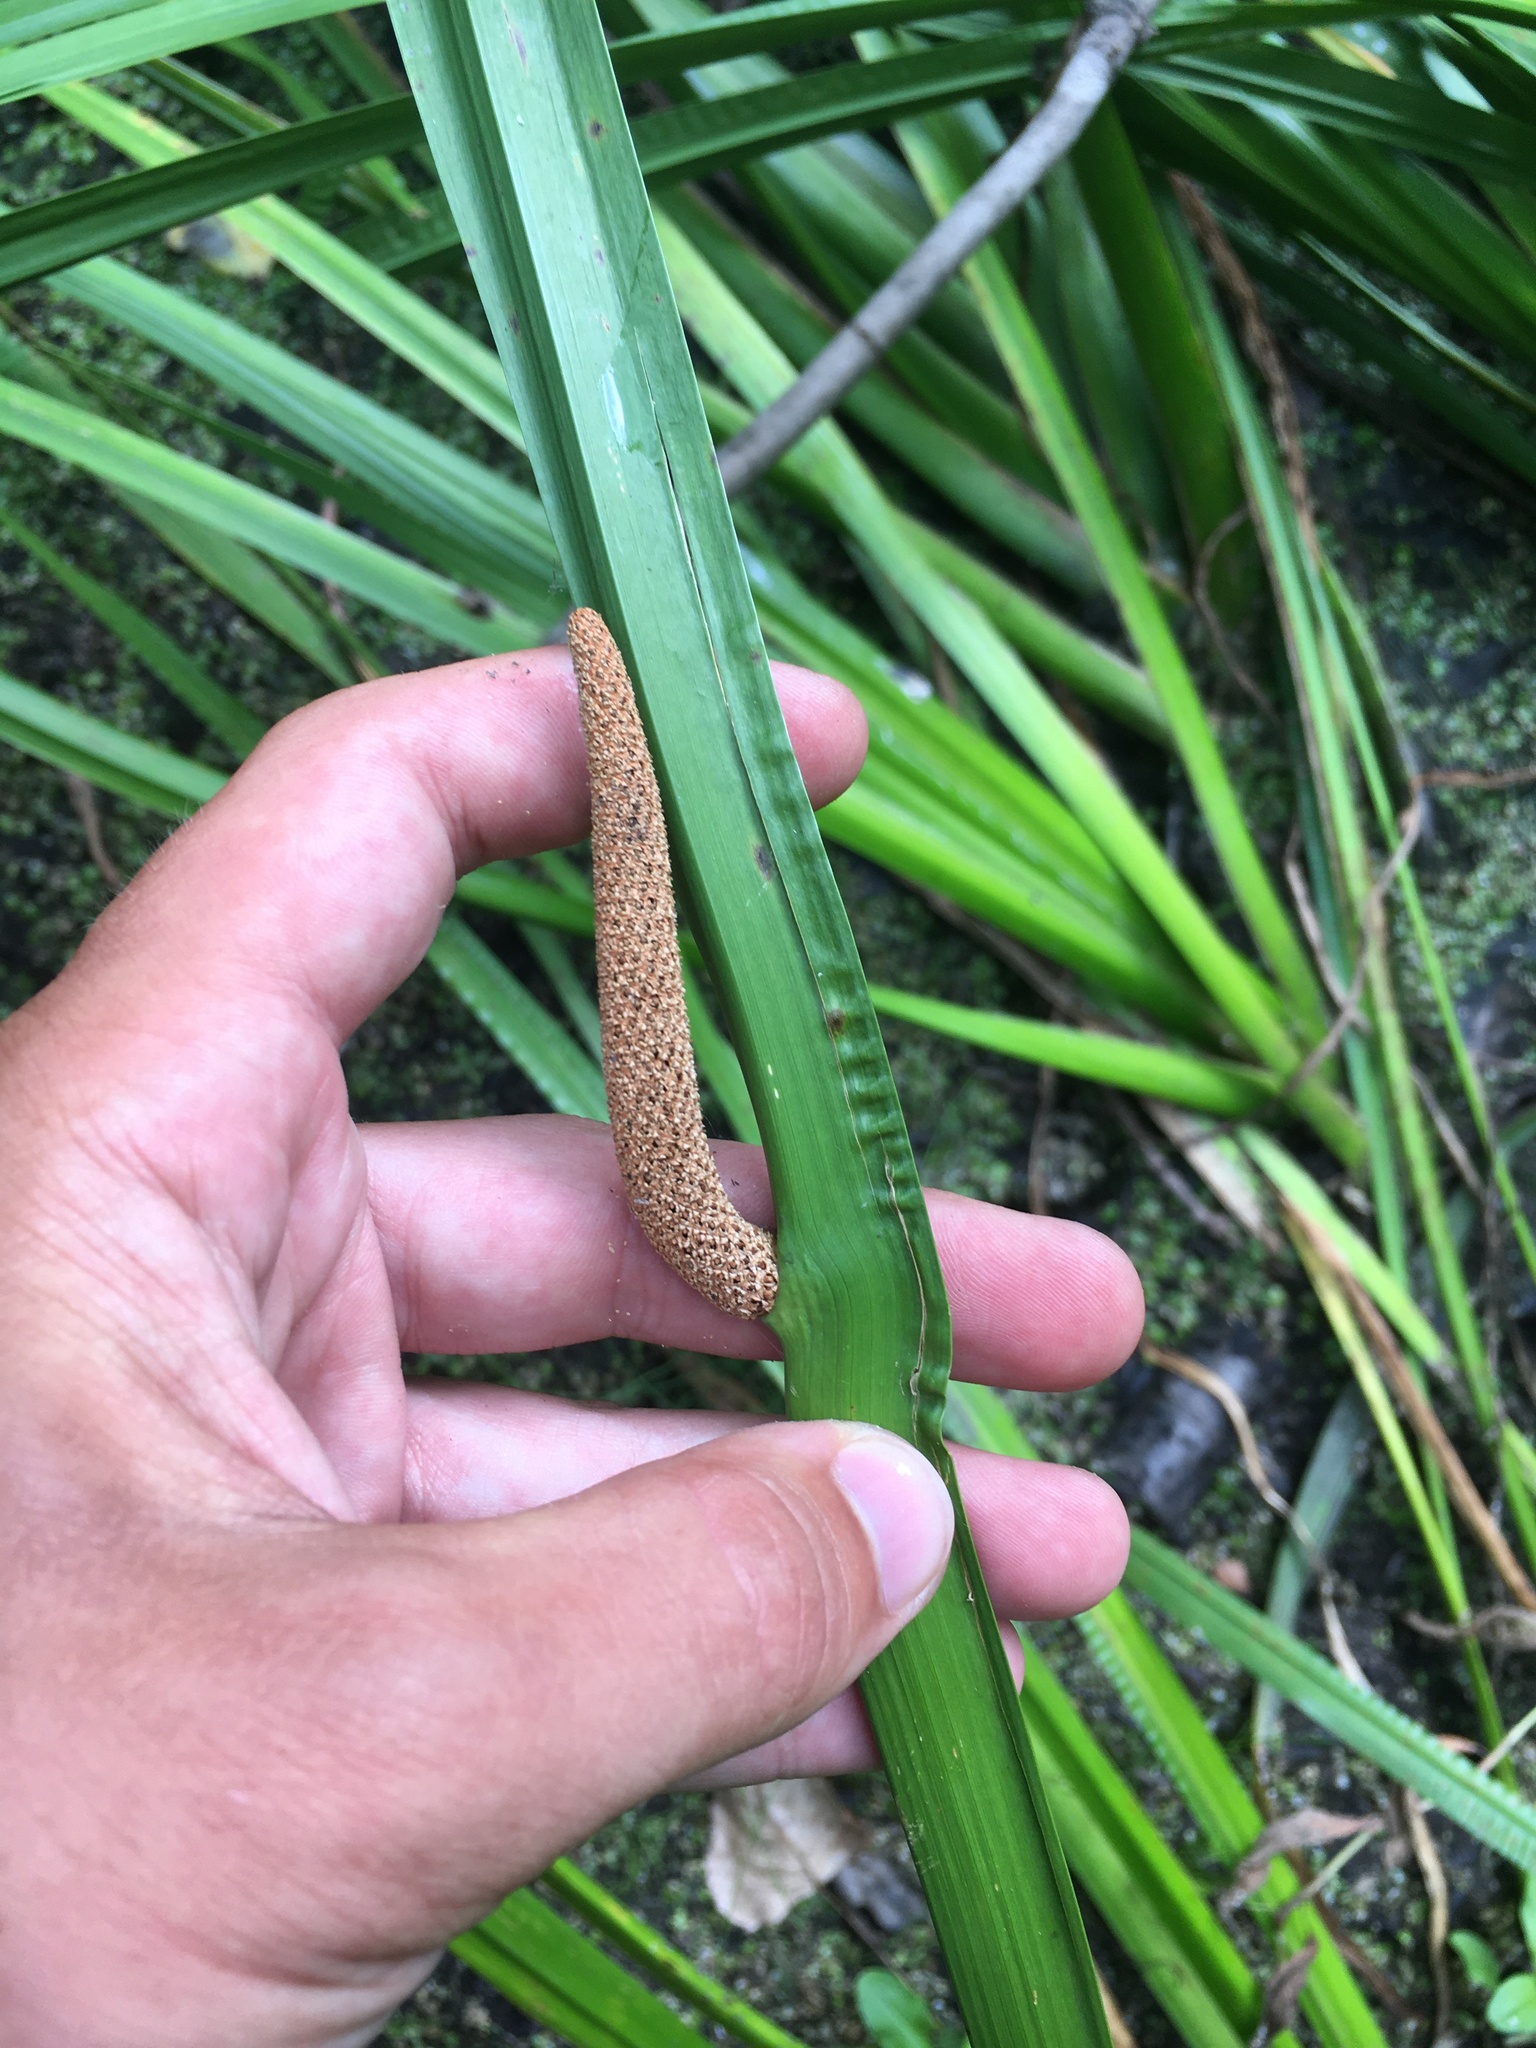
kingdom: Plantae
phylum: Tracheophyta
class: Liliopsida
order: Acorales
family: Acoraceae
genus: Acorus
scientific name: Acorus calamus
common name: Sweet-flag
